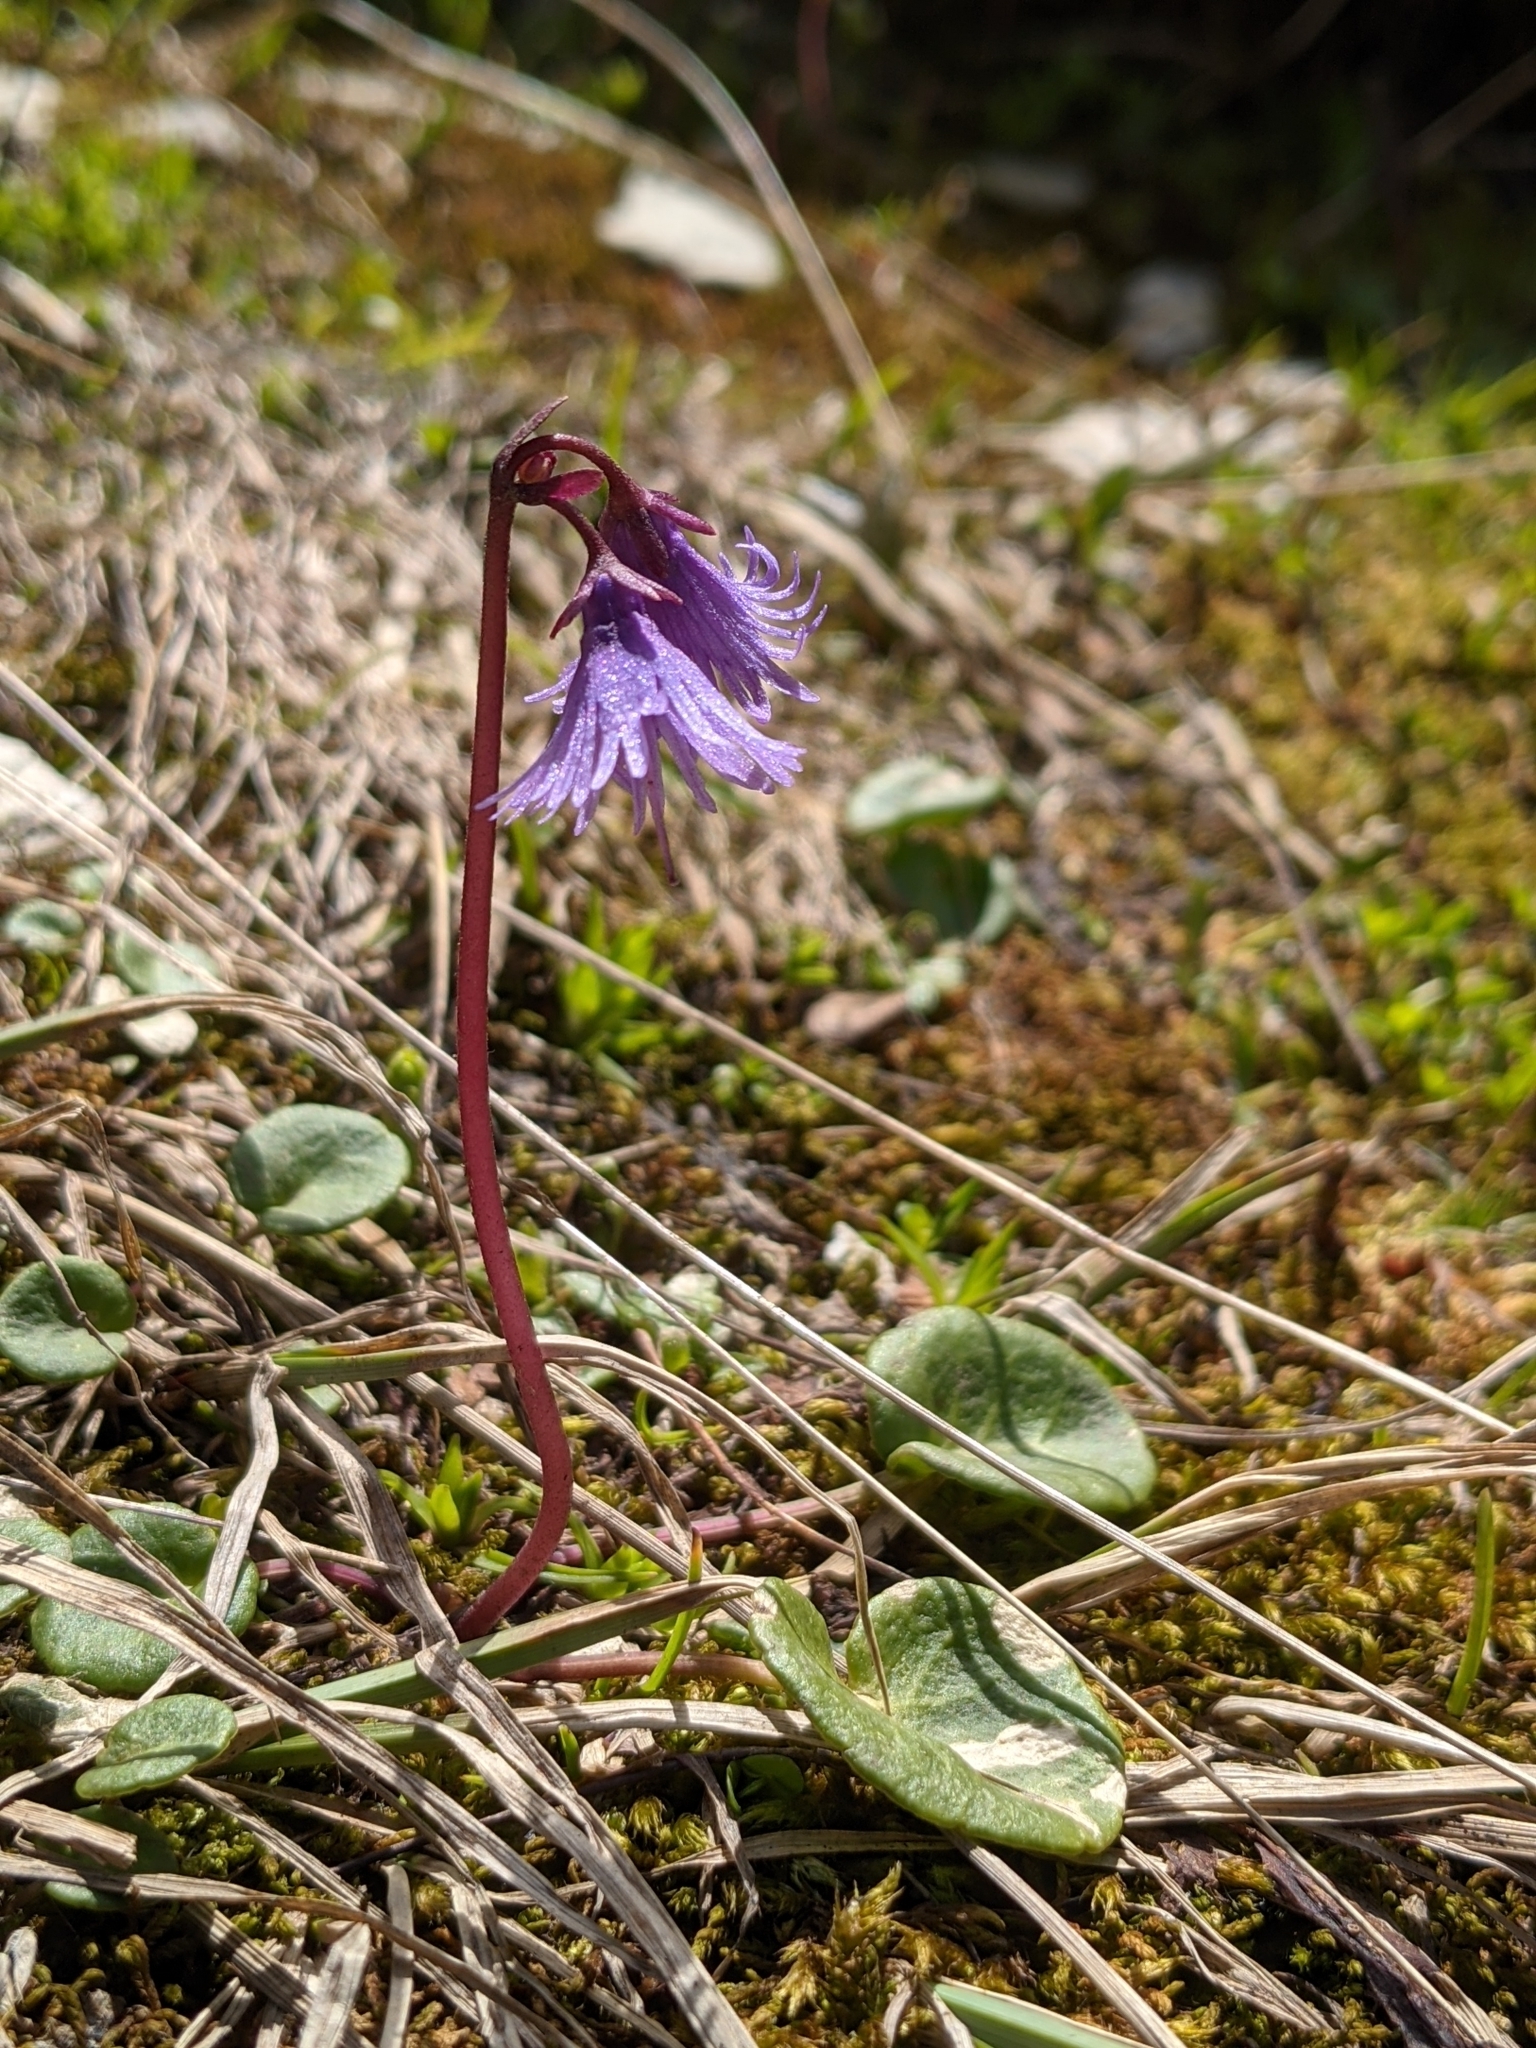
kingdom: Plantae
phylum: Tracheophyta
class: Magnoliopsida
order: Ericales
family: Primulaceae
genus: Soldanella
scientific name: Soldanella alpina
